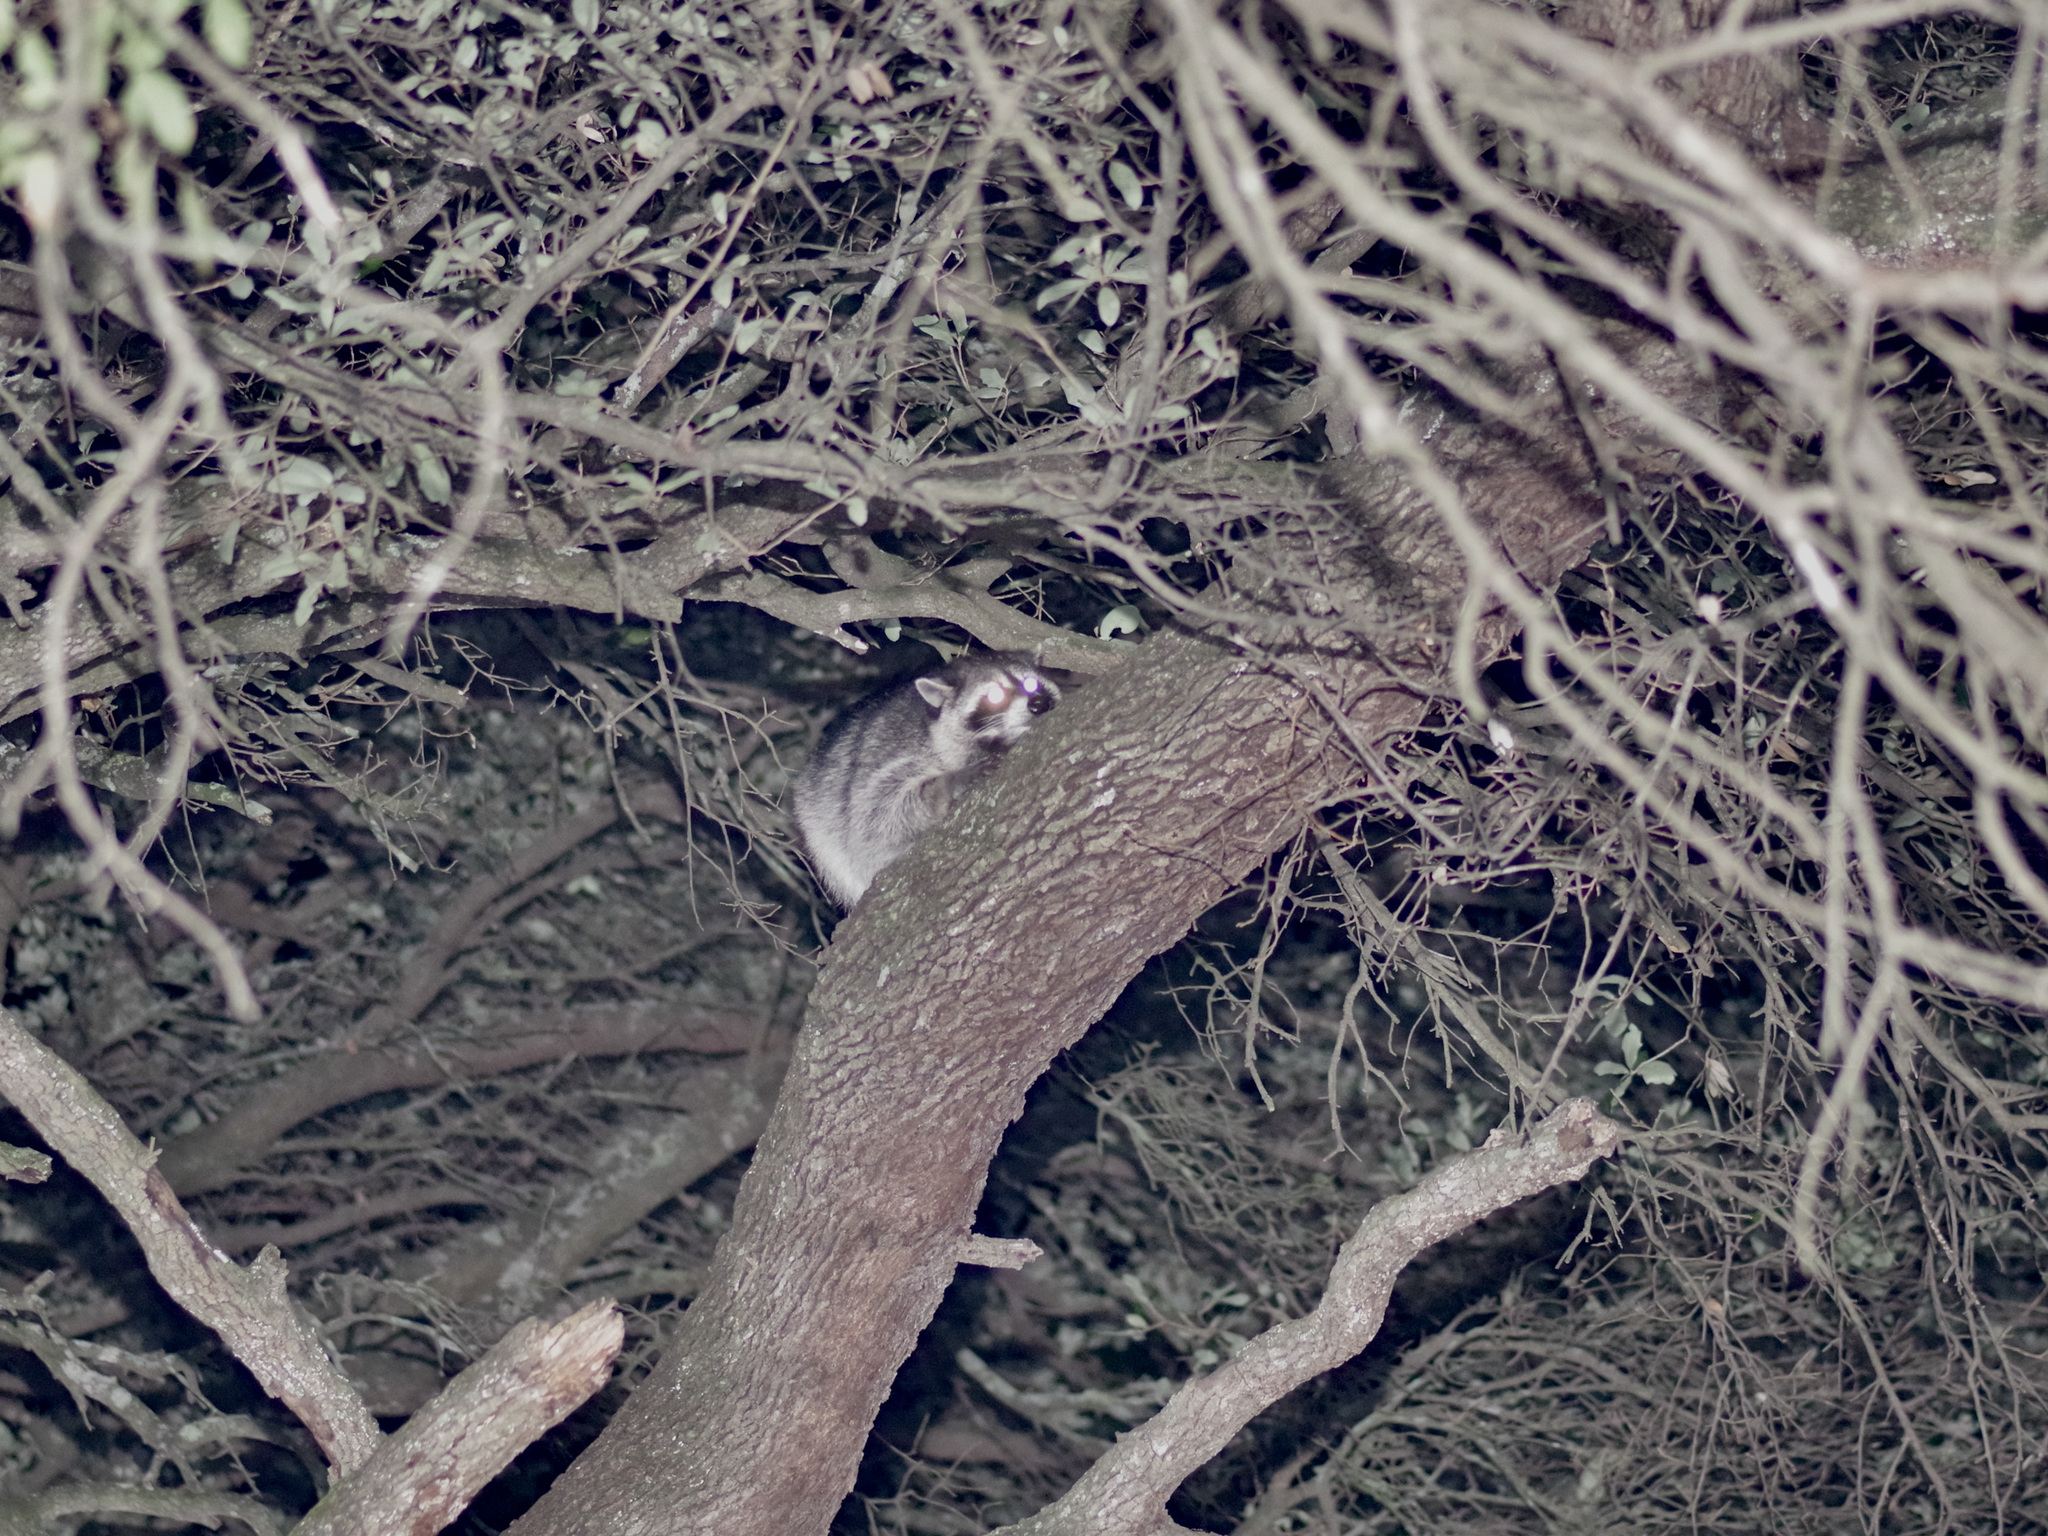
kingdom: Animalia
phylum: Chordata
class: Mammalia
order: Carnivora
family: Procyonidae
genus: Procyon
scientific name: Procyon lotor
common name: Raccoon
